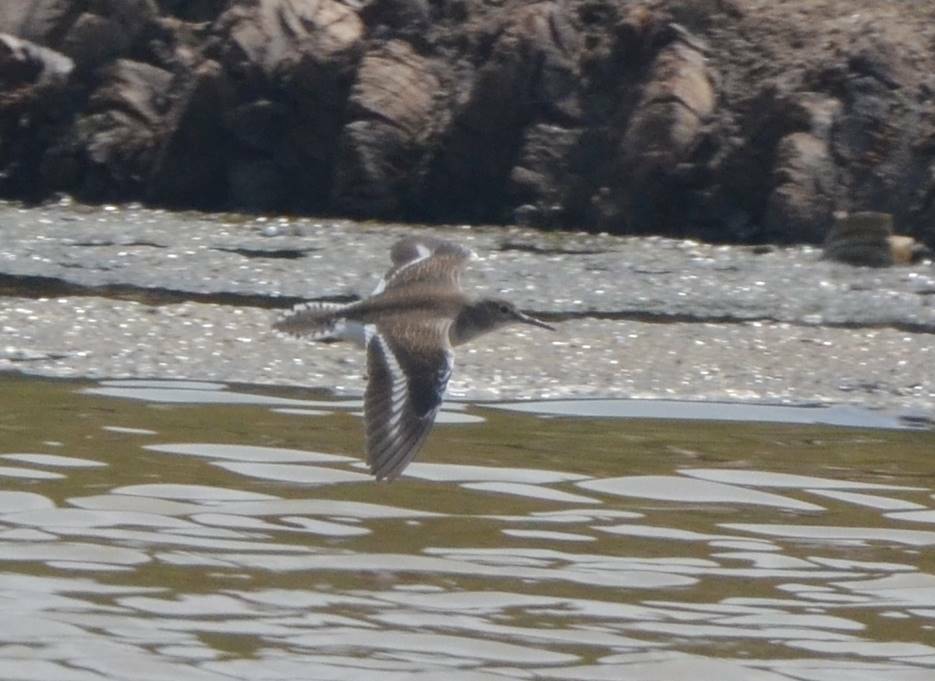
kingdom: Animalia
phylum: Chordata
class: Aves
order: Charadriiformes
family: Scolopacidae
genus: Actitis
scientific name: Actitis hypoleucos
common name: Common sandpiper
